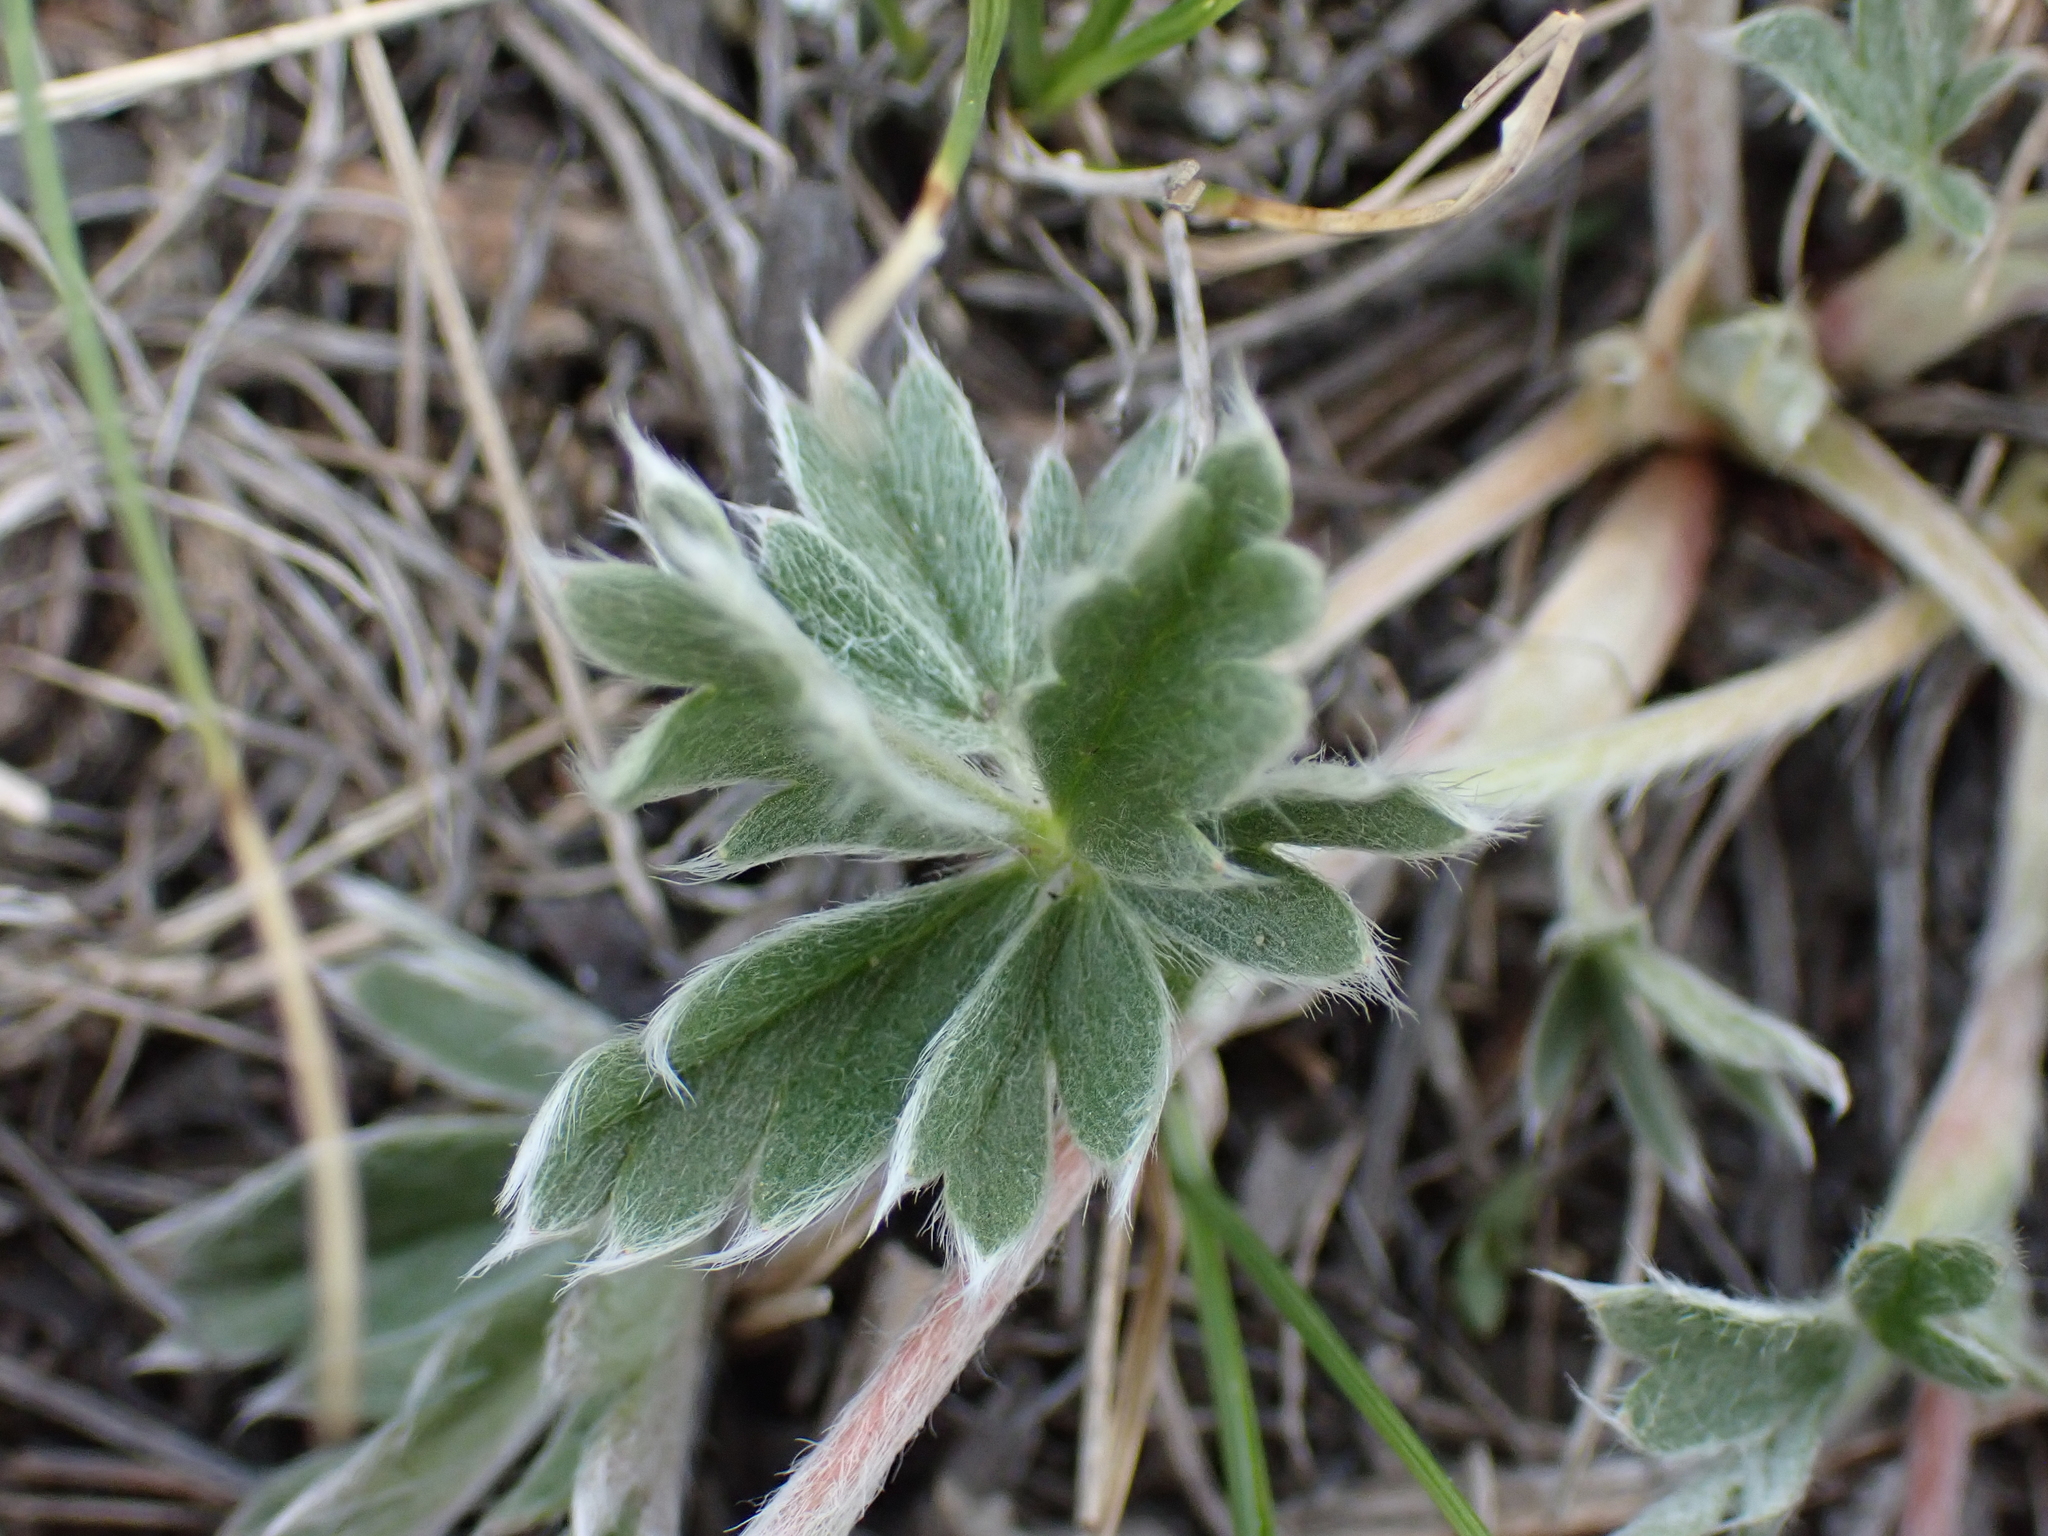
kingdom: Plantae
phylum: Tracheophyta
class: Magnoliopsida
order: Rosales
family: Rosaceae
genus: Potentilla
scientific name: Potentilla concinna
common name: Early cinquefoil
